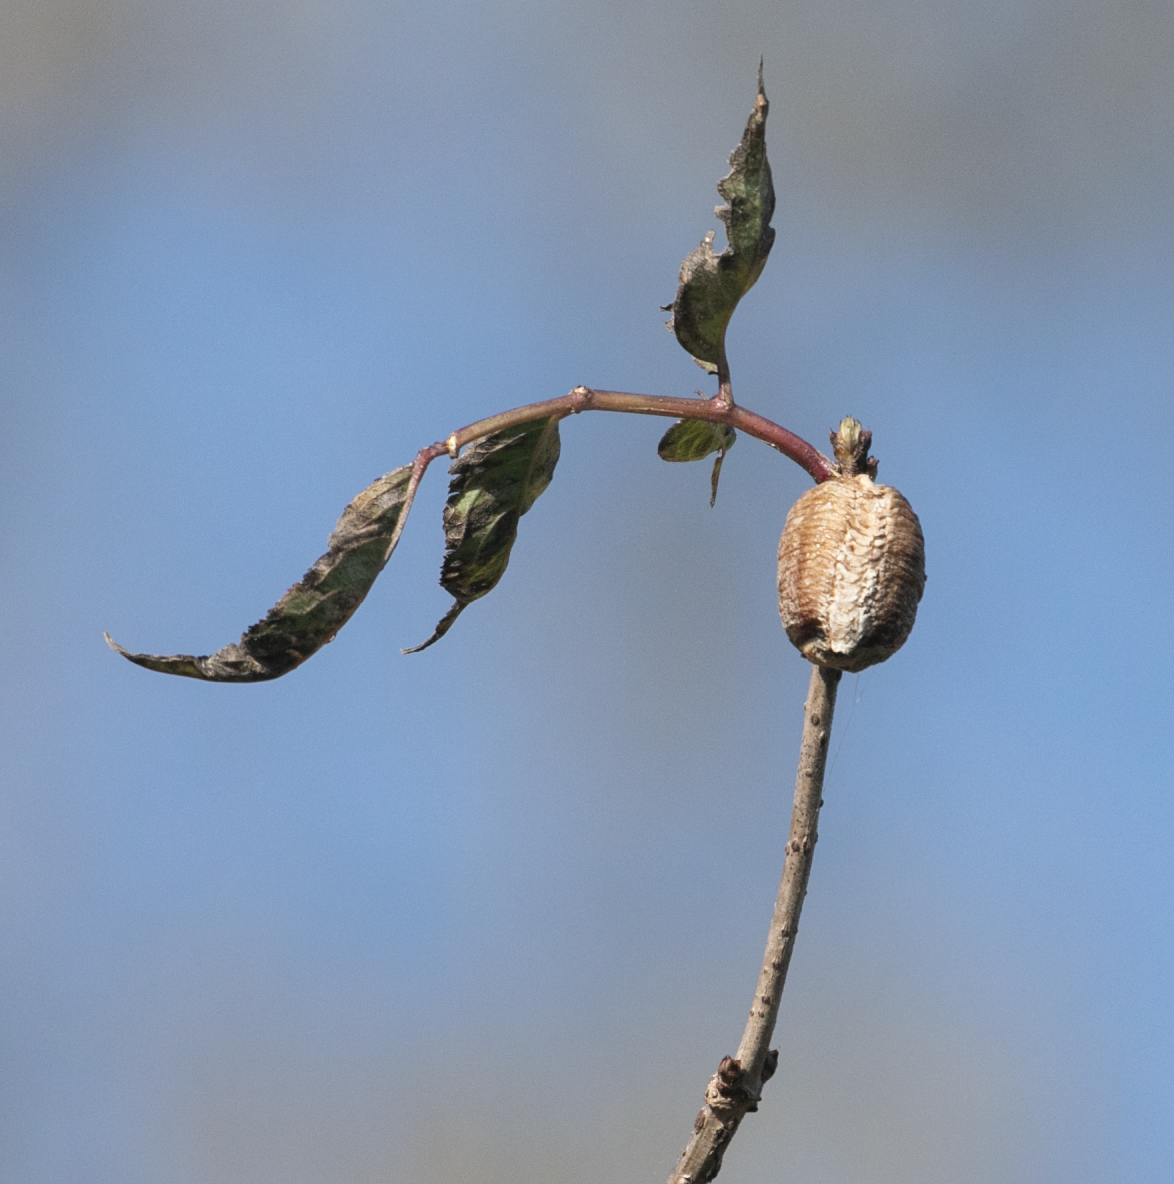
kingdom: Animalia
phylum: Arthropoda
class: Insecta
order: Mantodea
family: Mantidae
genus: Hierodula
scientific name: Hierodula transcaucasica
